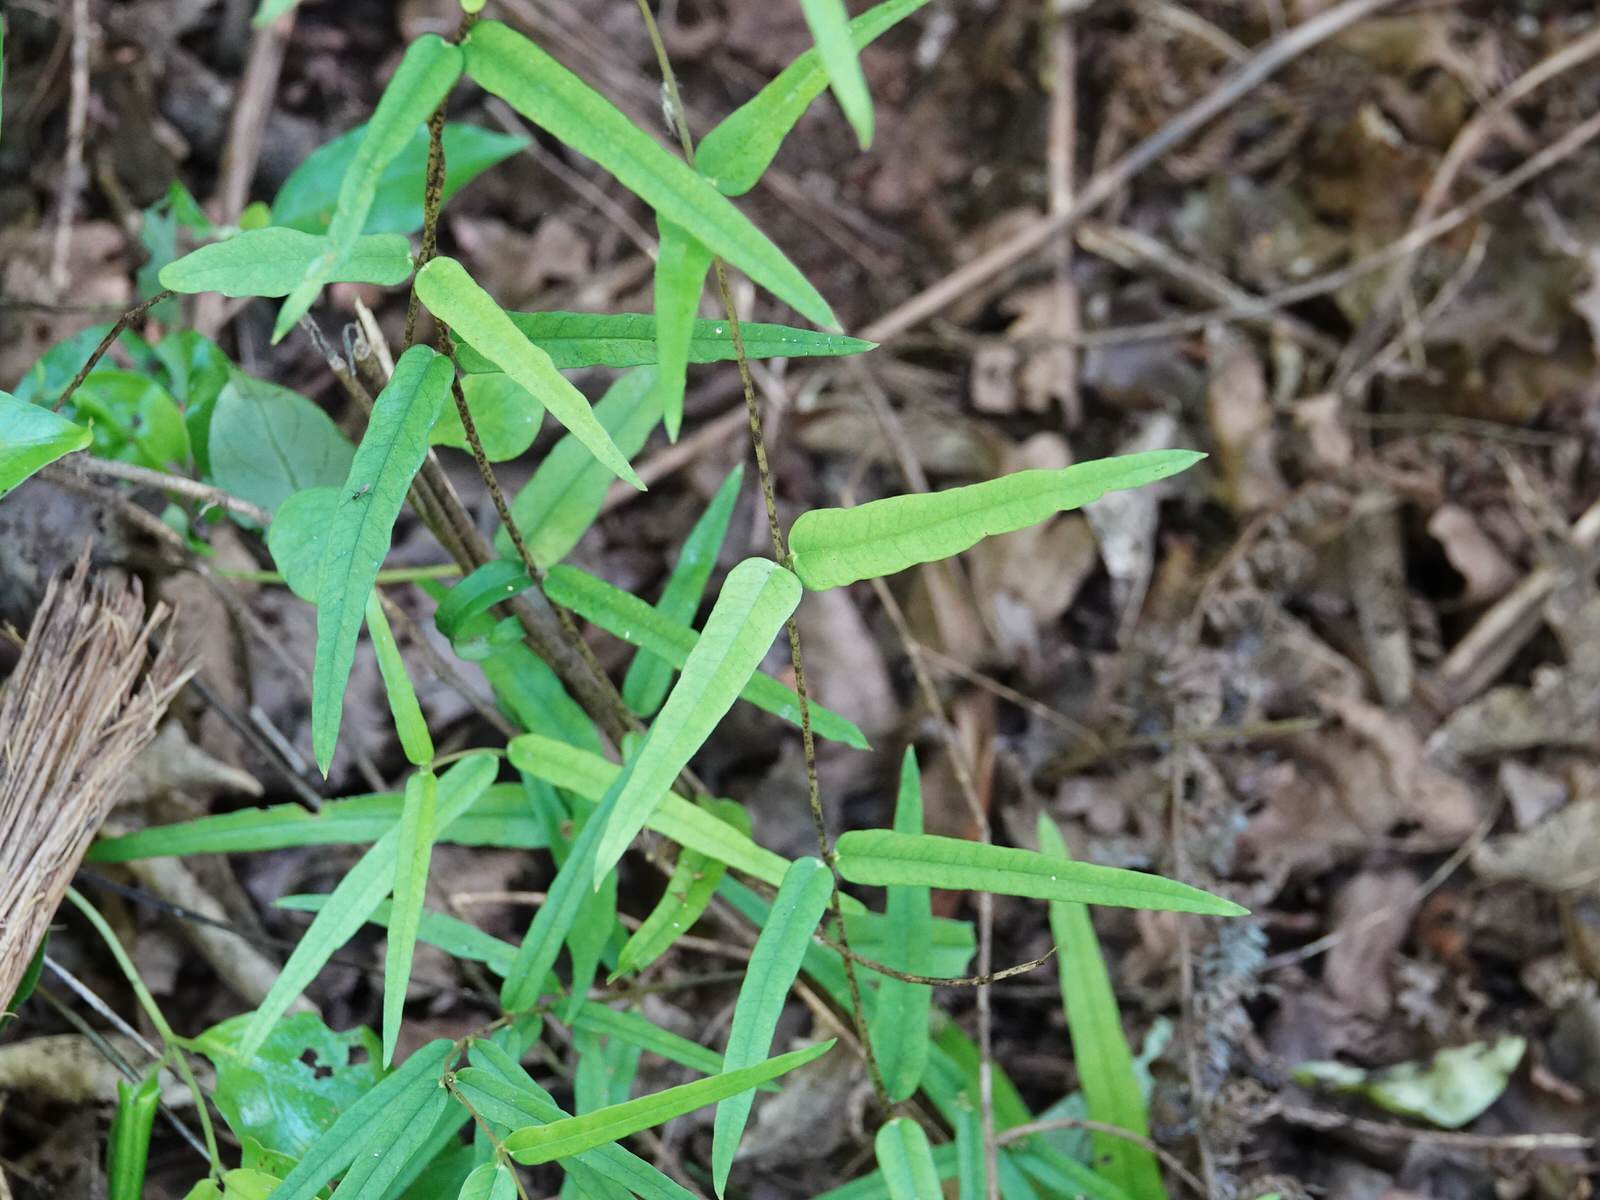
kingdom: Plantae
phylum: Tracheophyta
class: Magnoliopsida
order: Gentianales
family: Apocynaceae
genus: Parsonsia
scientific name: Parsonsia heterophylla
